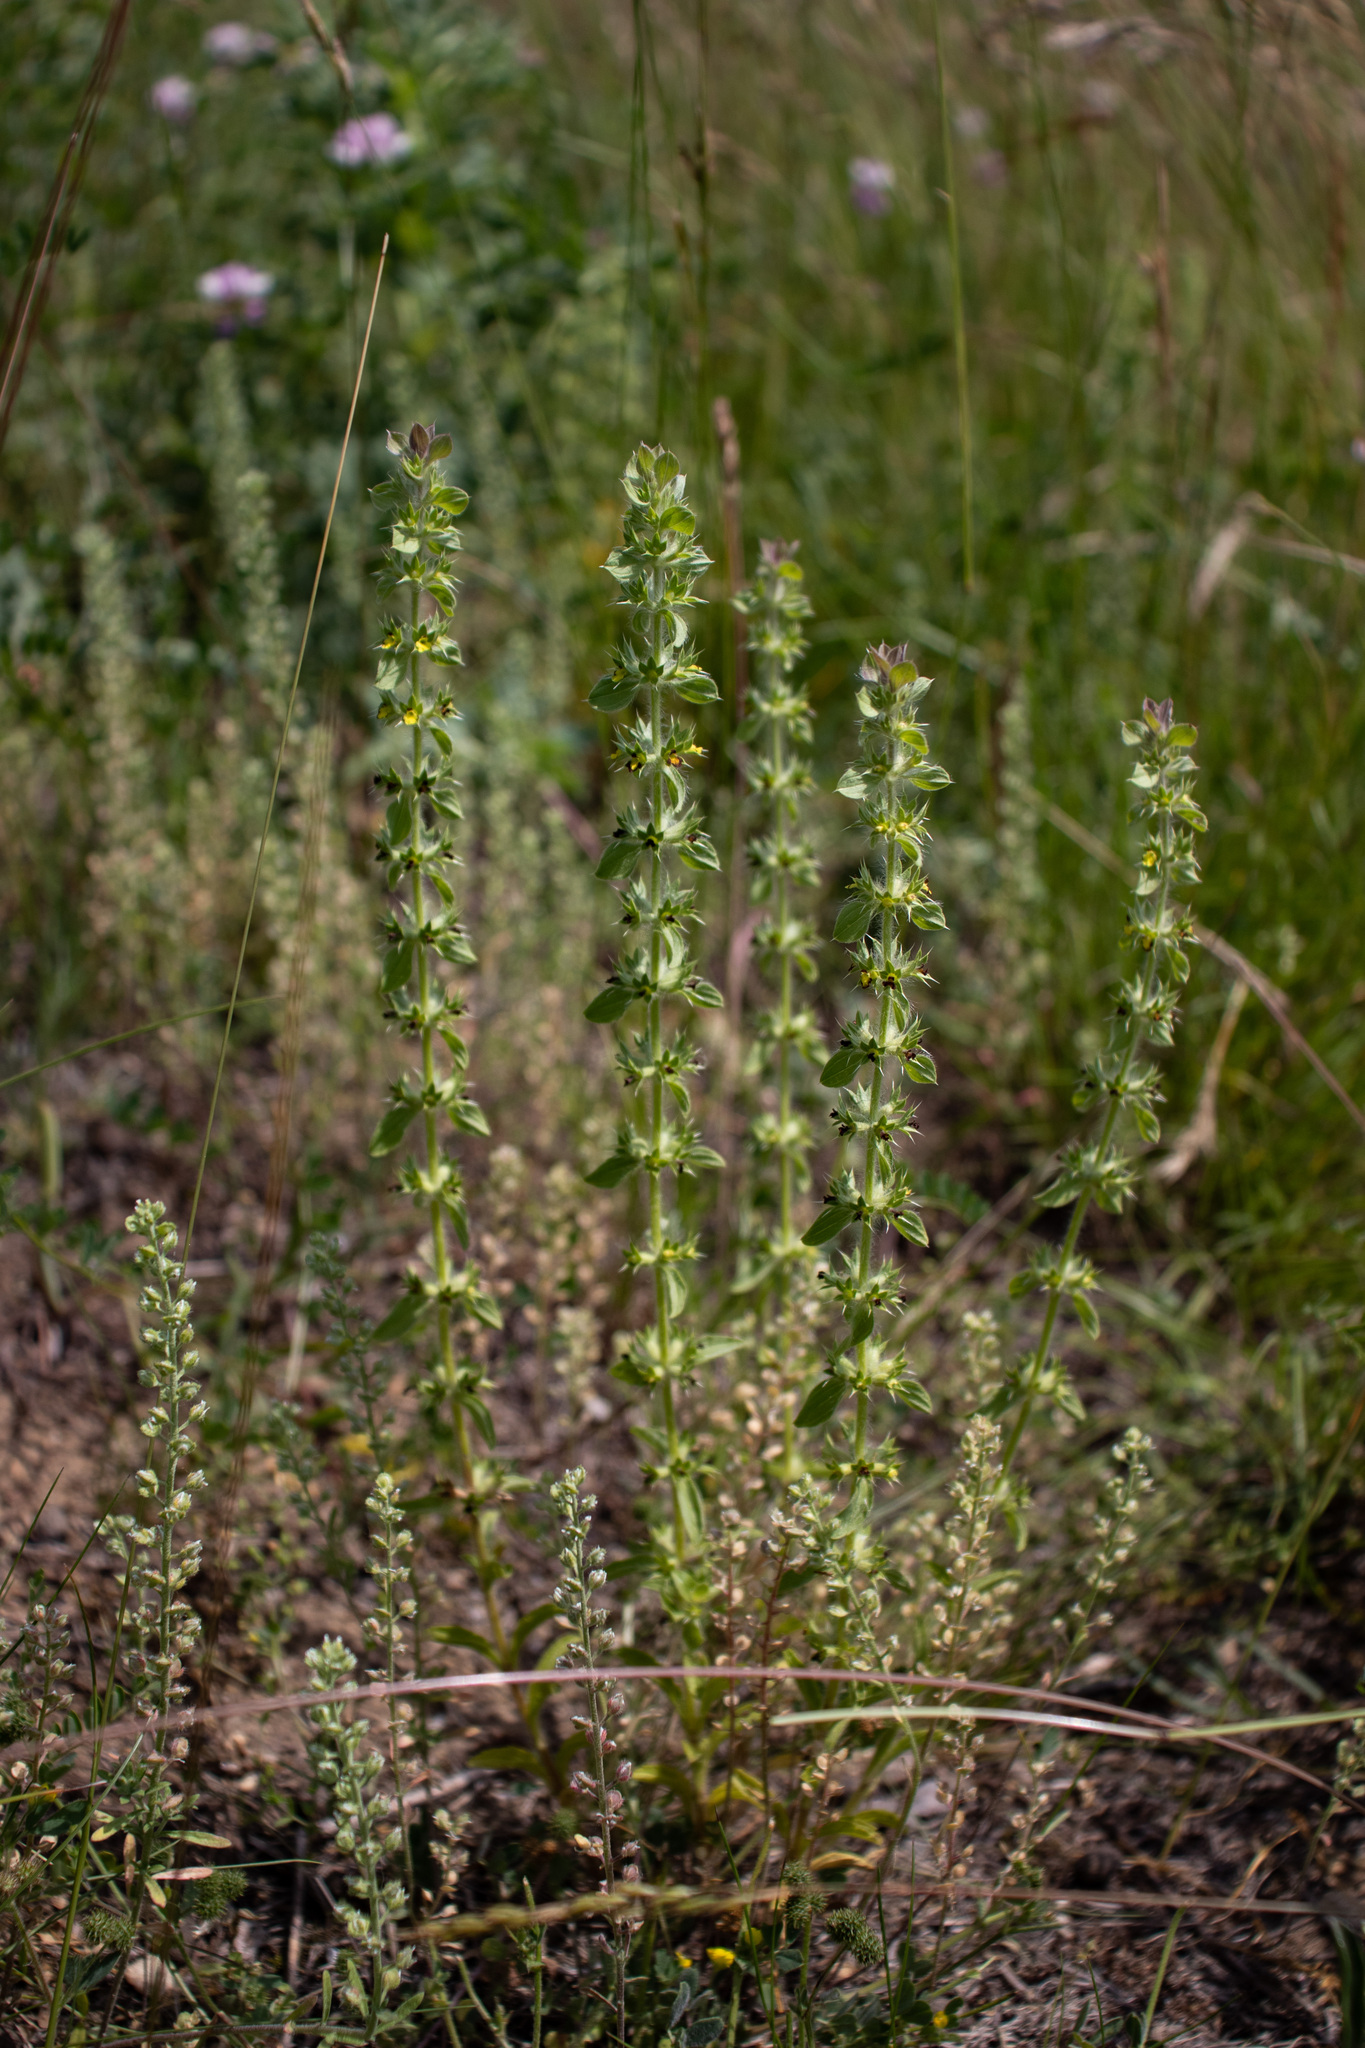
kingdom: Plantae
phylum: Tracheophyta
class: Magnoliopsida
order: Lamiales
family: Lamiaceae
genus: Sideritis
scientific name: Sideritis montana
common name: Mountain ironwort
